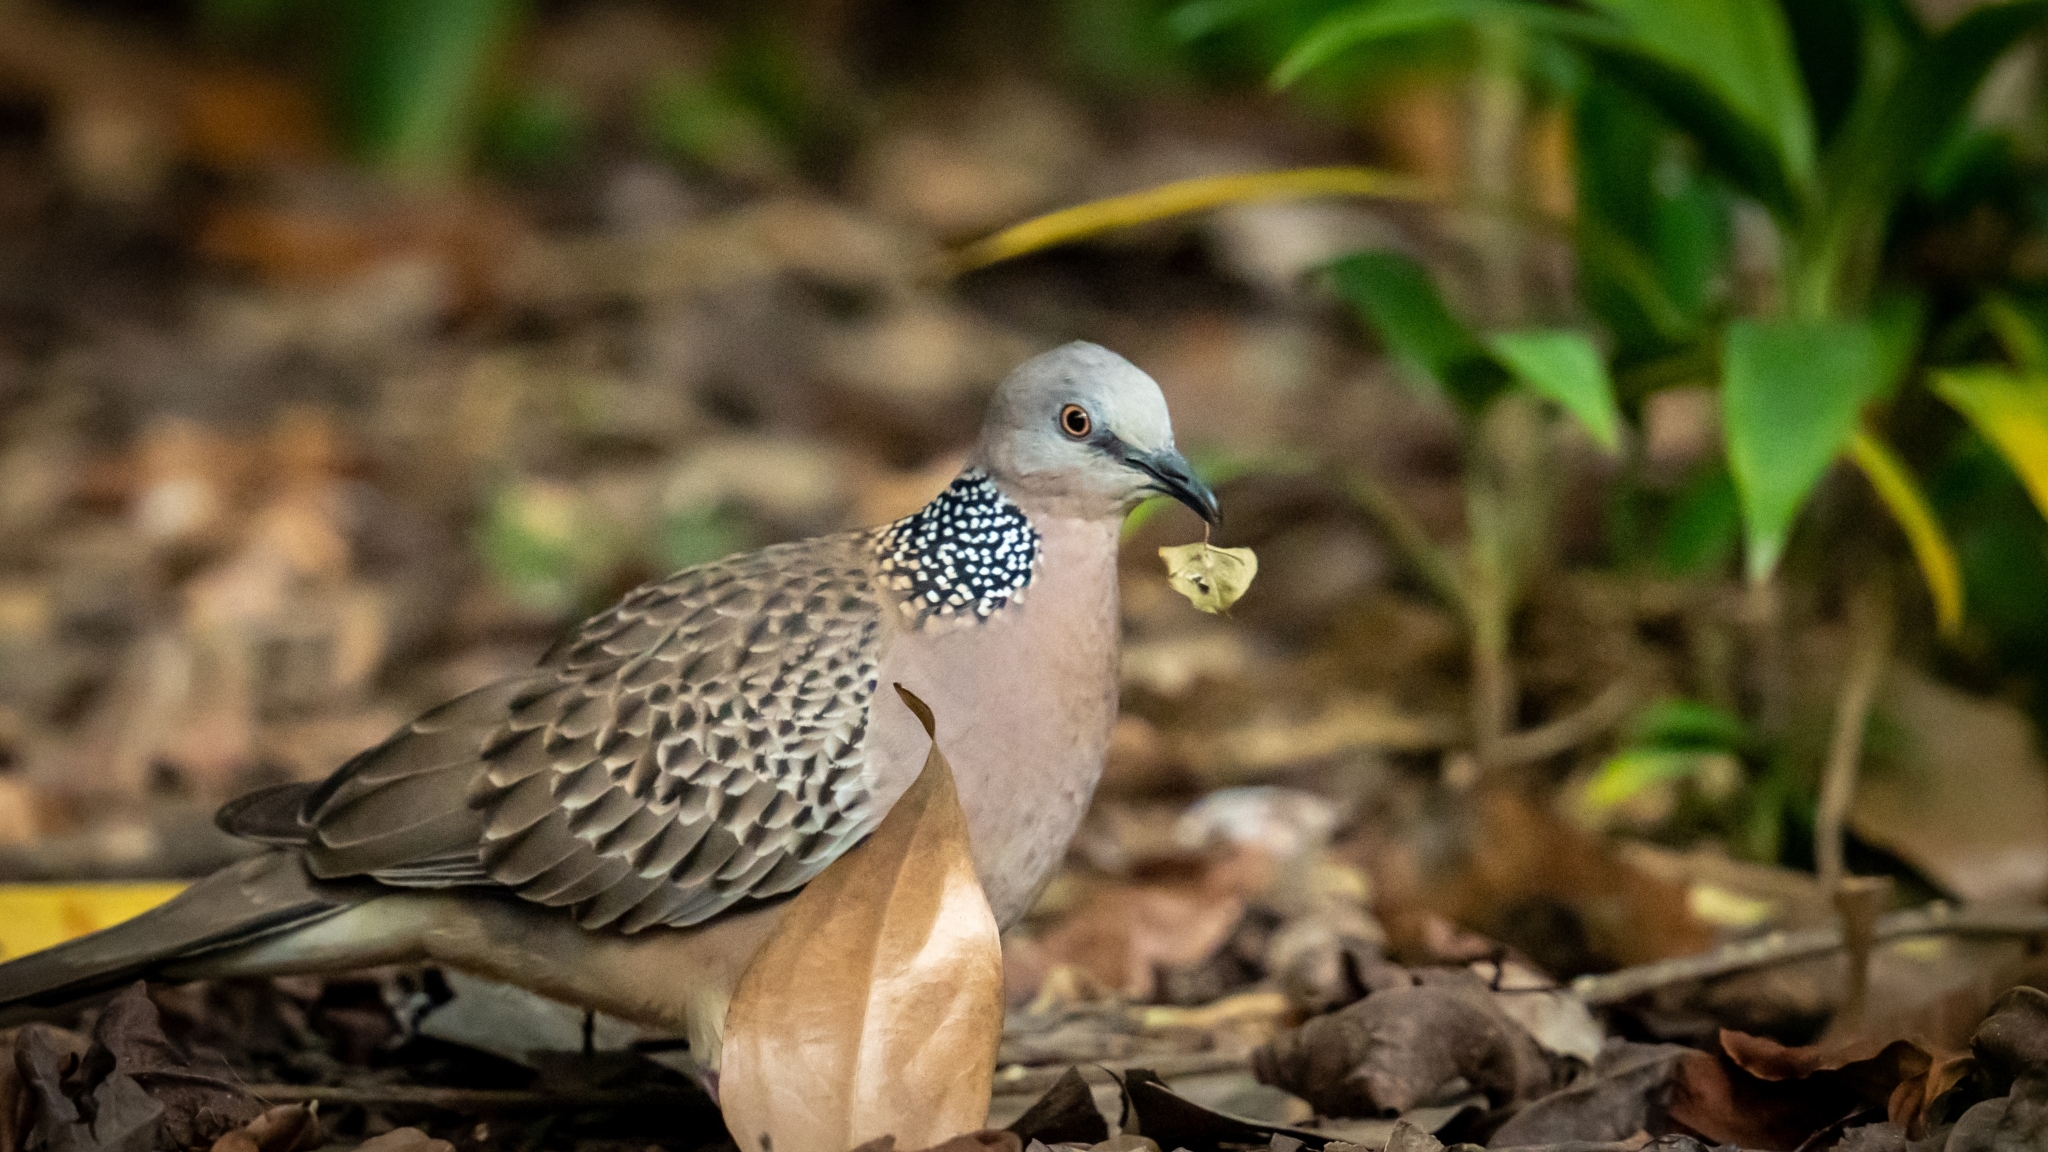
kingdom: Animalia
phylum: Chordata
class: Aves
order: Columbiformes
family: Columbidae
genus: Spilopelia
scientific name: Spilopelia chinensis
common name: Spotted dove
